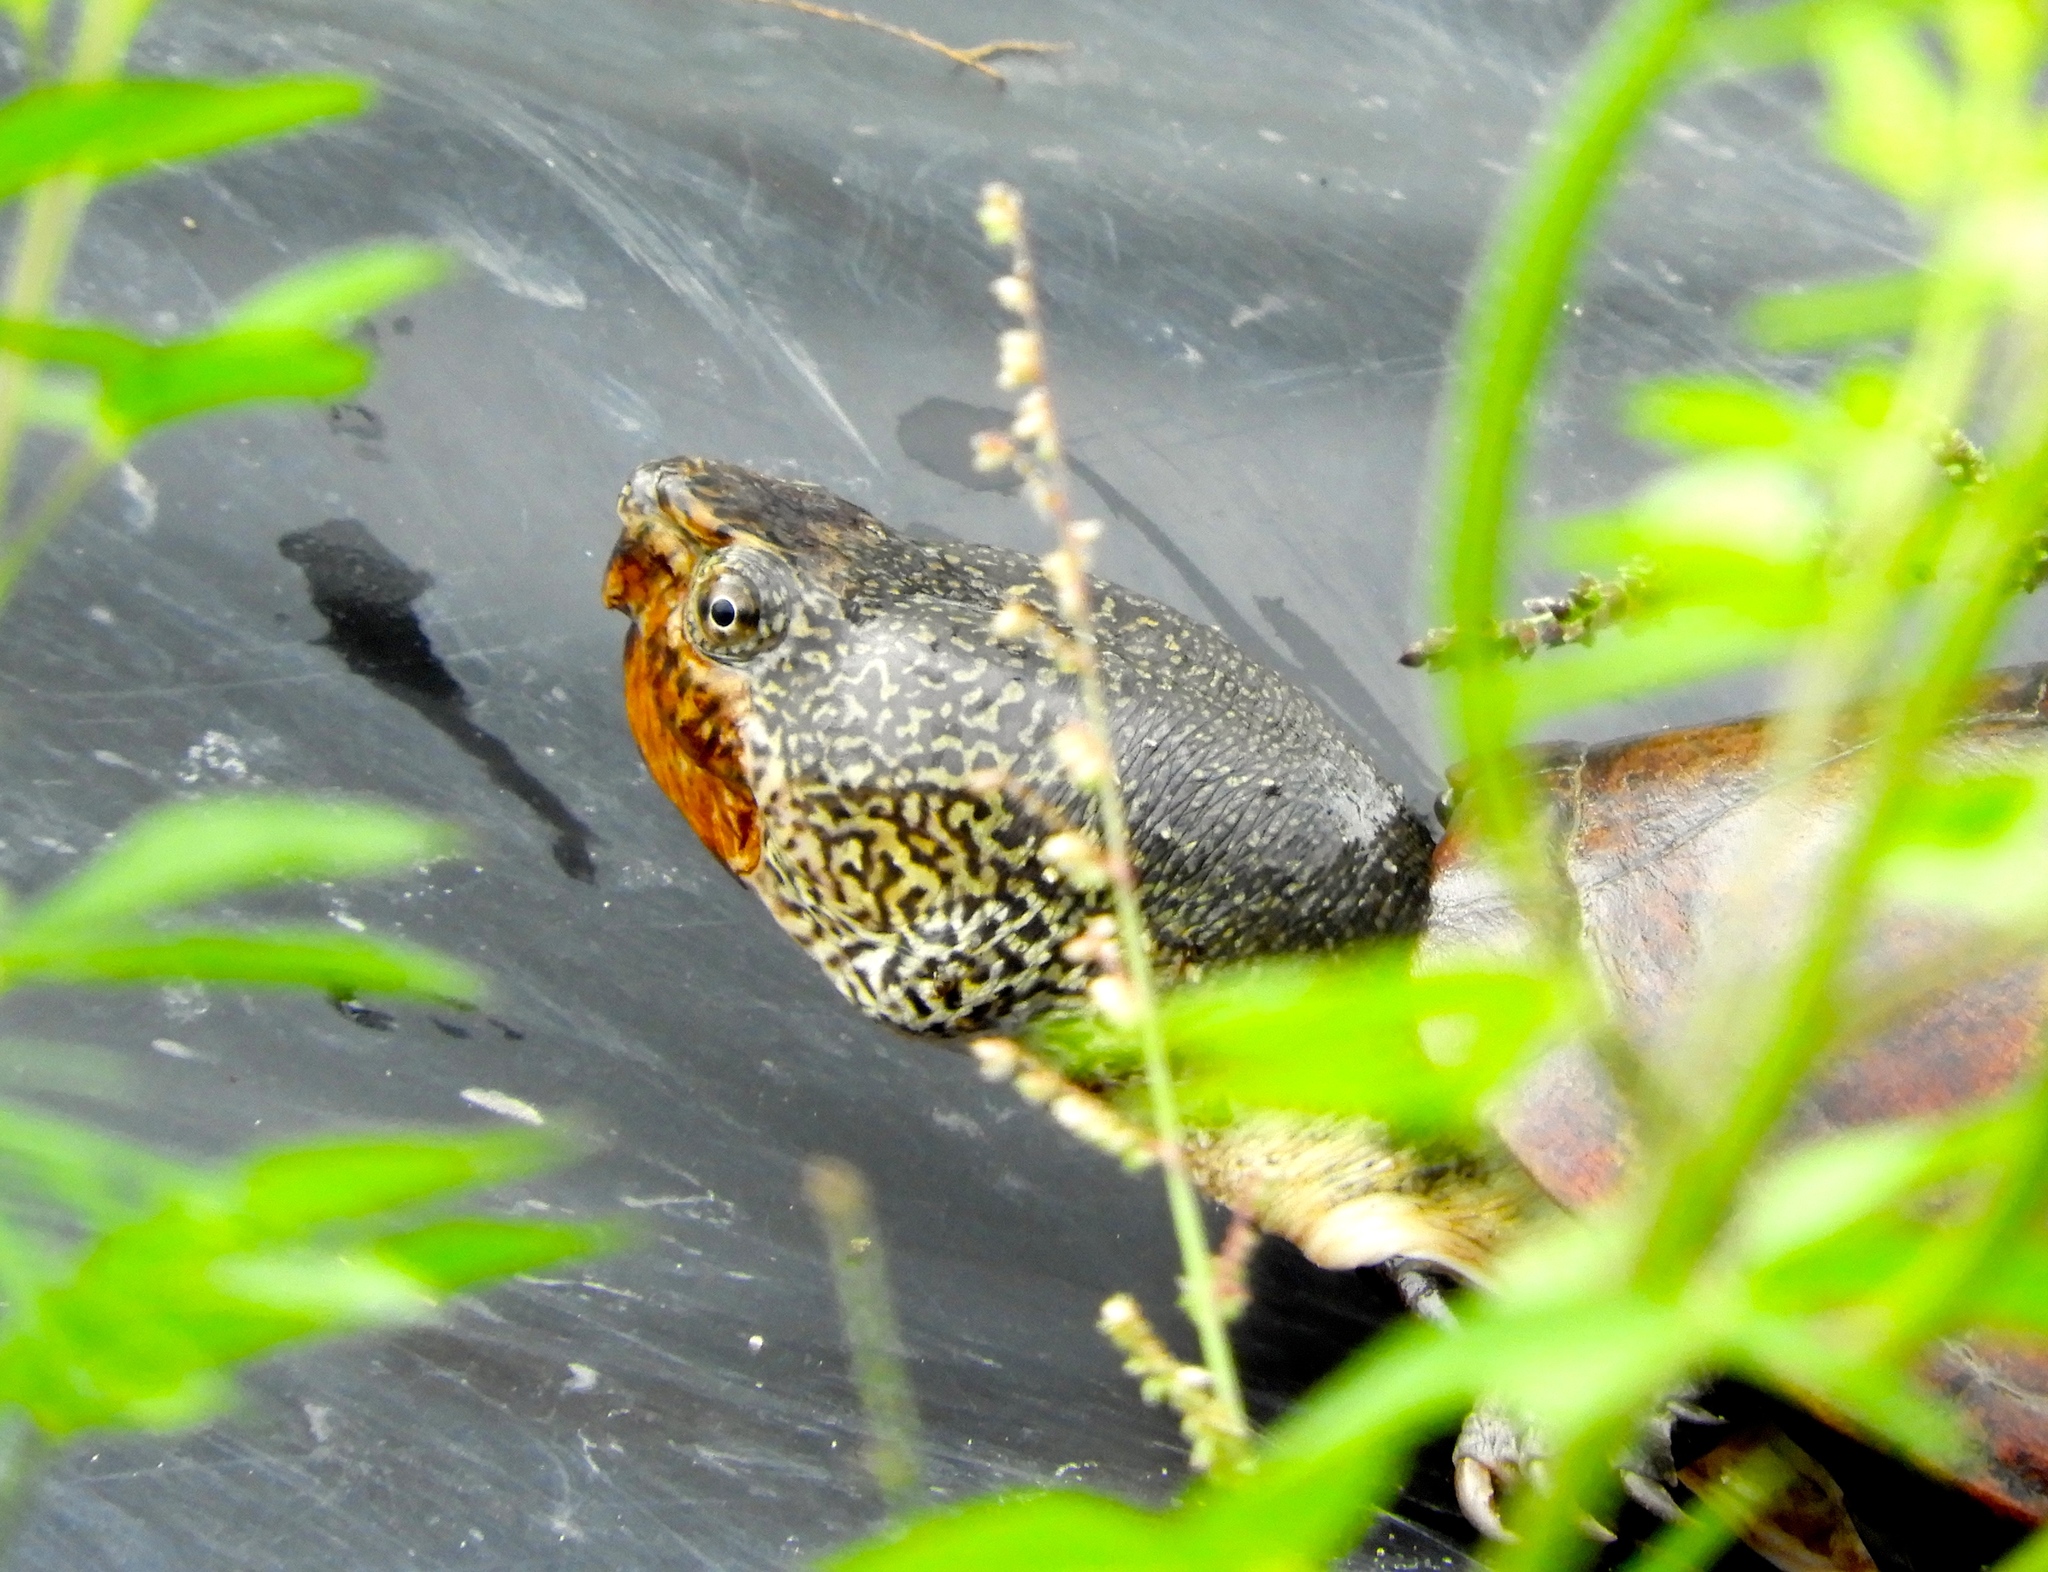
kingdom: Animalia
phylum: Chordata
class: Testudines
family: Kinosternidae
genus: Kinosternon
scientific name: Kinosternon integrum
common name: Mexican mud turtle
